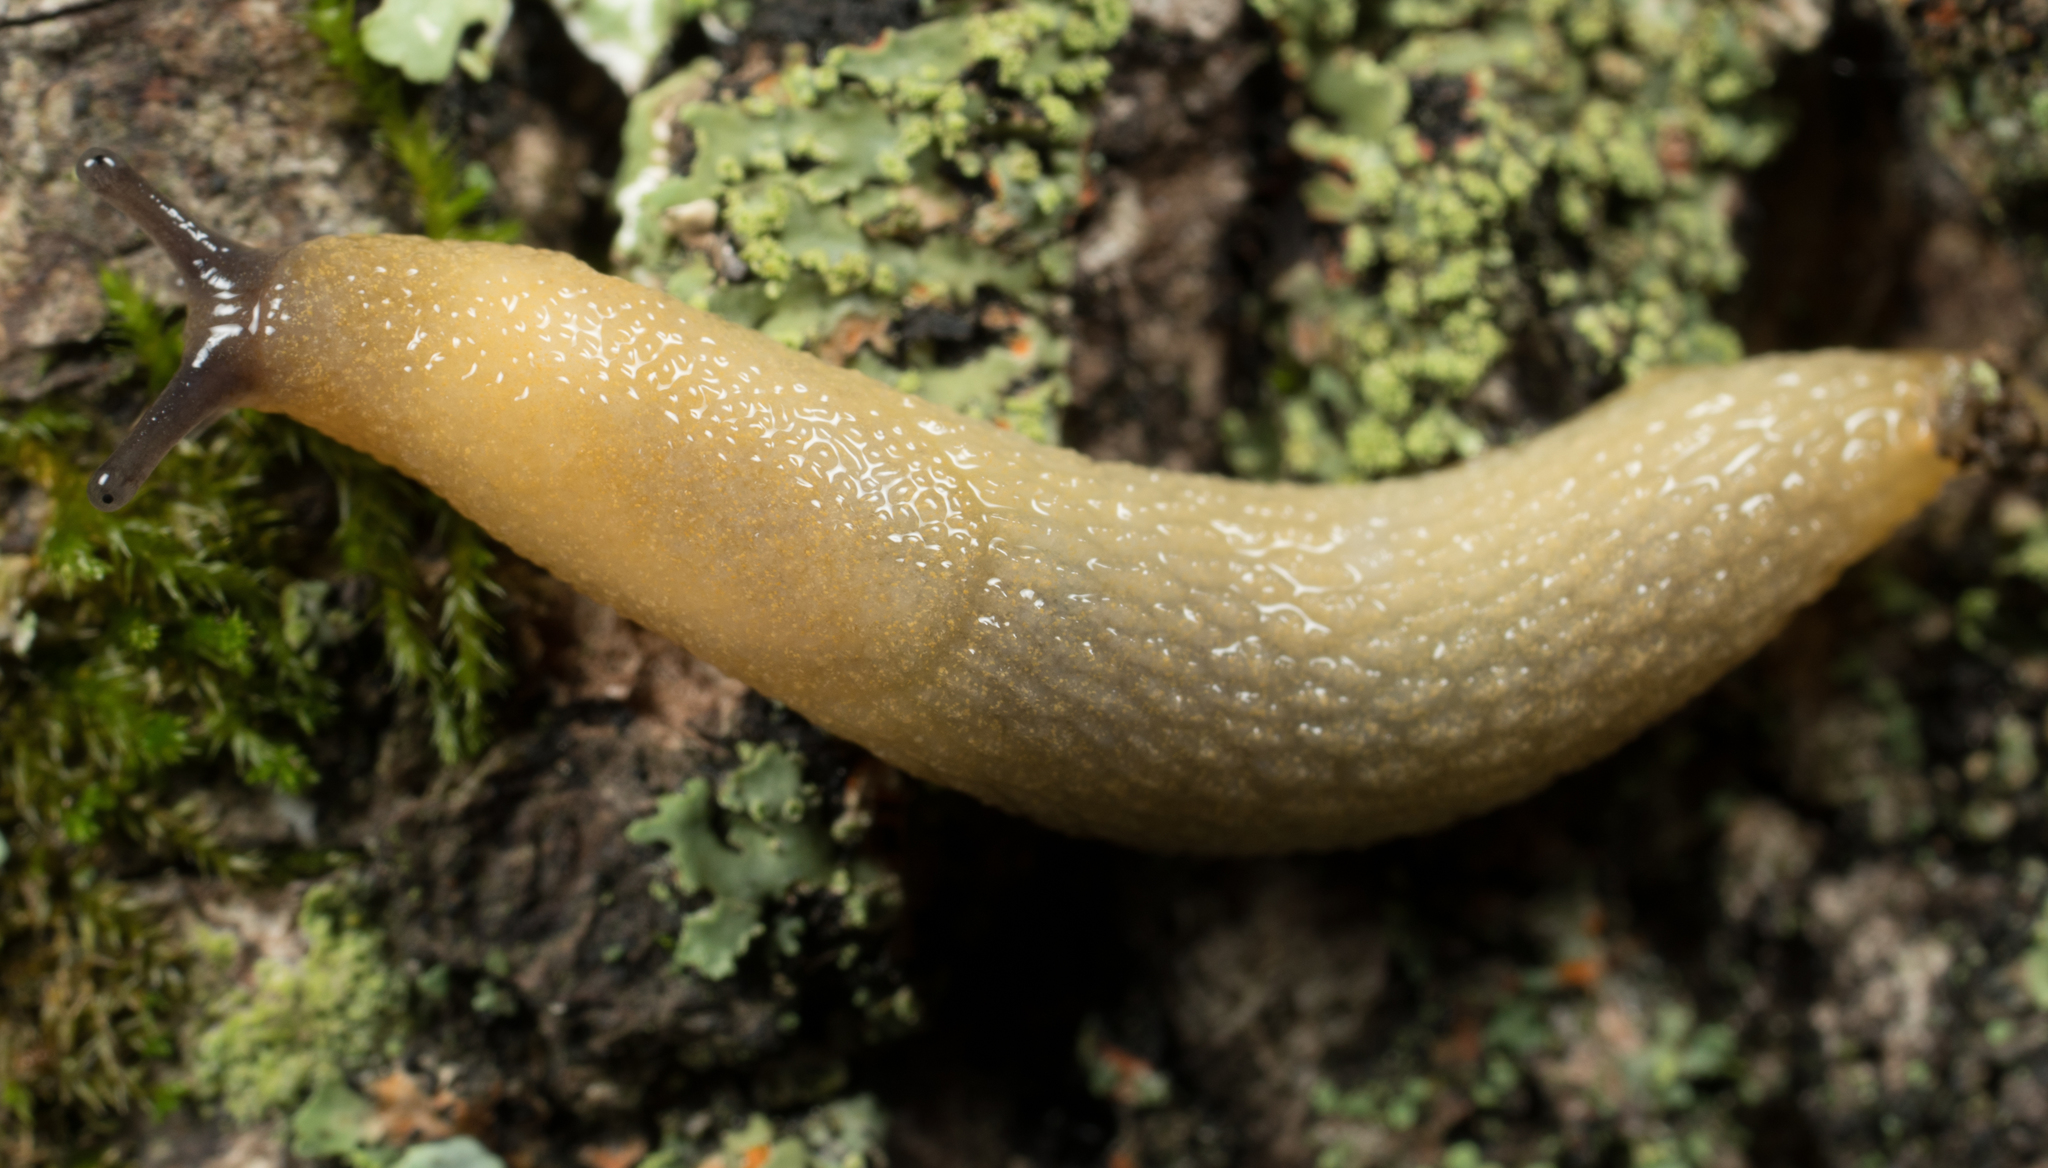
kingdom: Animalia
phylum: Mollusca
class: Gastropoda
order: Stylommatophora
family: Arionidae
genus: Arion
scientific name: Arion intermedius
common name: Hedgehog slug
